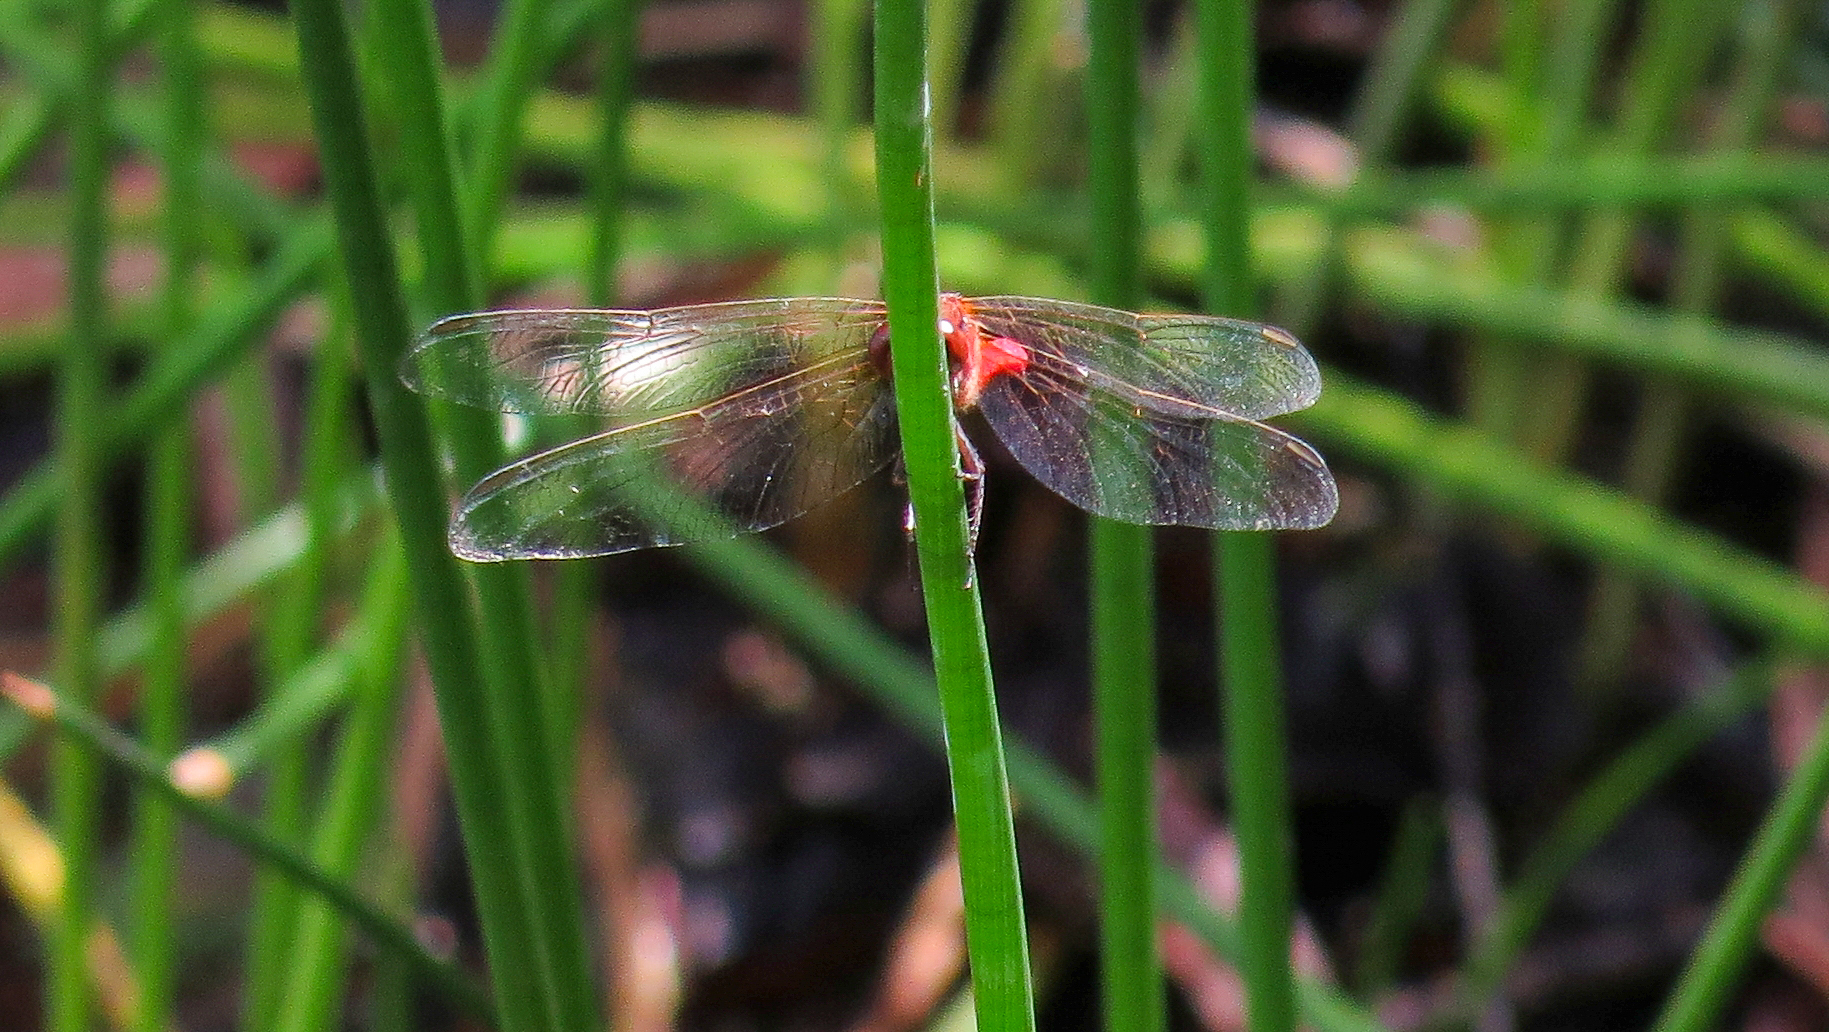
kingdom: Animalia
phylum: Arthropoda
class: Insecta
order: Odonata
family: Libellulidae
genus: Rhodothemis
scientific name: Rhodothemis lieftincki
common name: Red arrow
